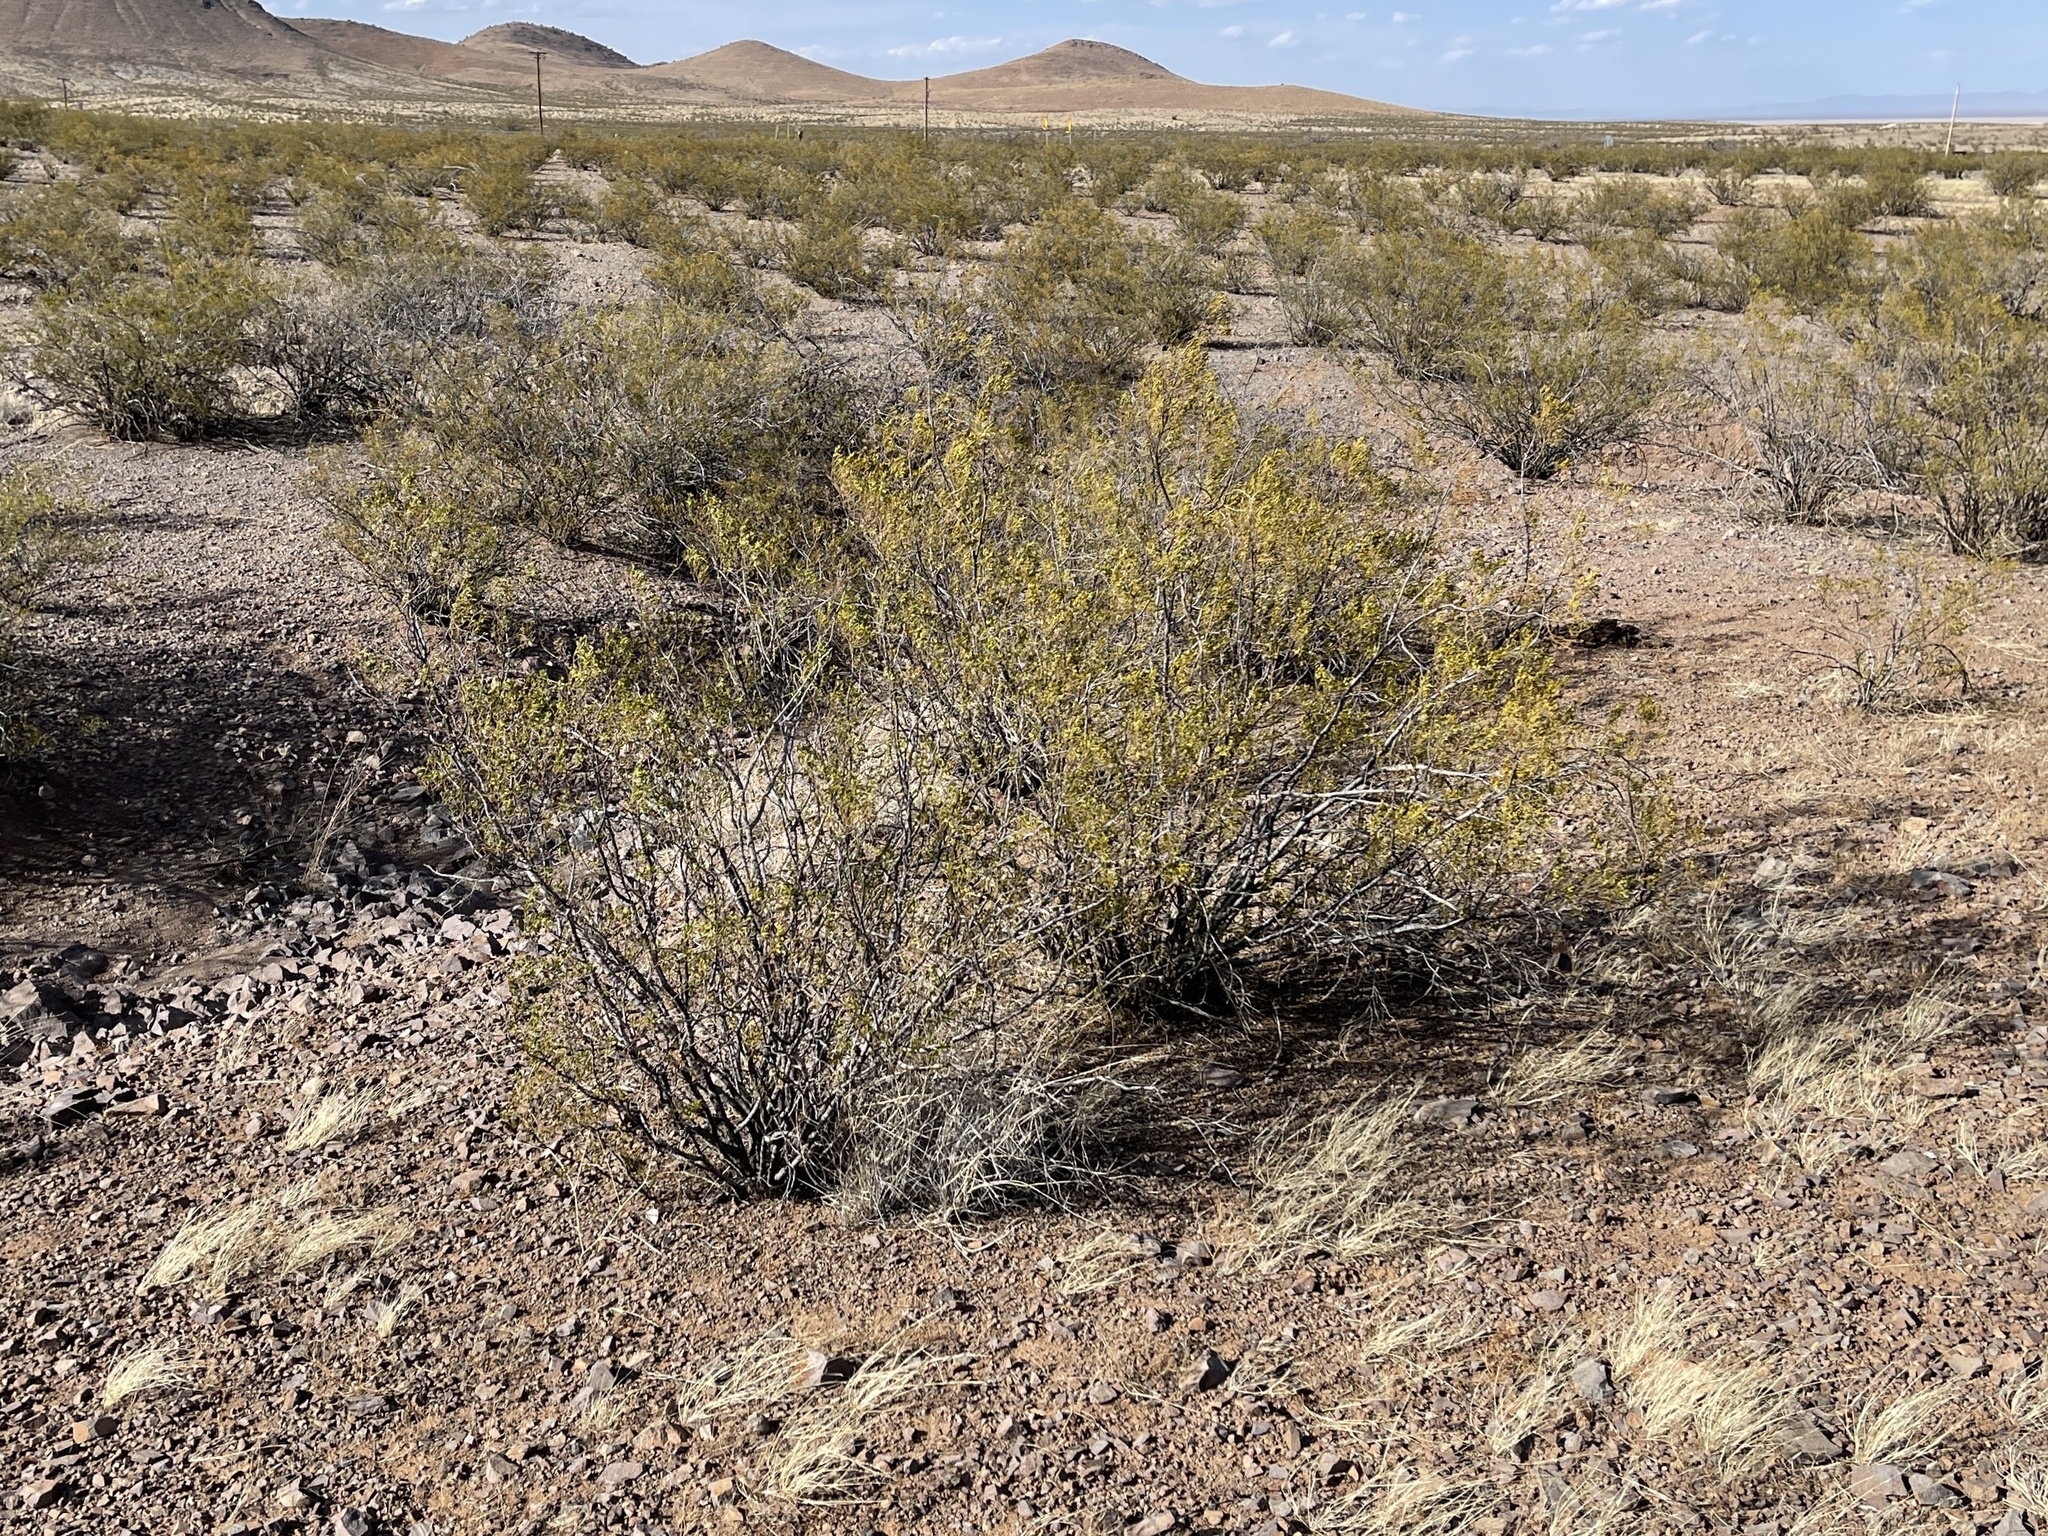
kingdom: Plantae
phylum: Tracheophyta
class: Magnoliopsida
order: Zygophyllales
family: Zygophyllaceae
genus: Larrea
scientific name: Larrea tridentata
